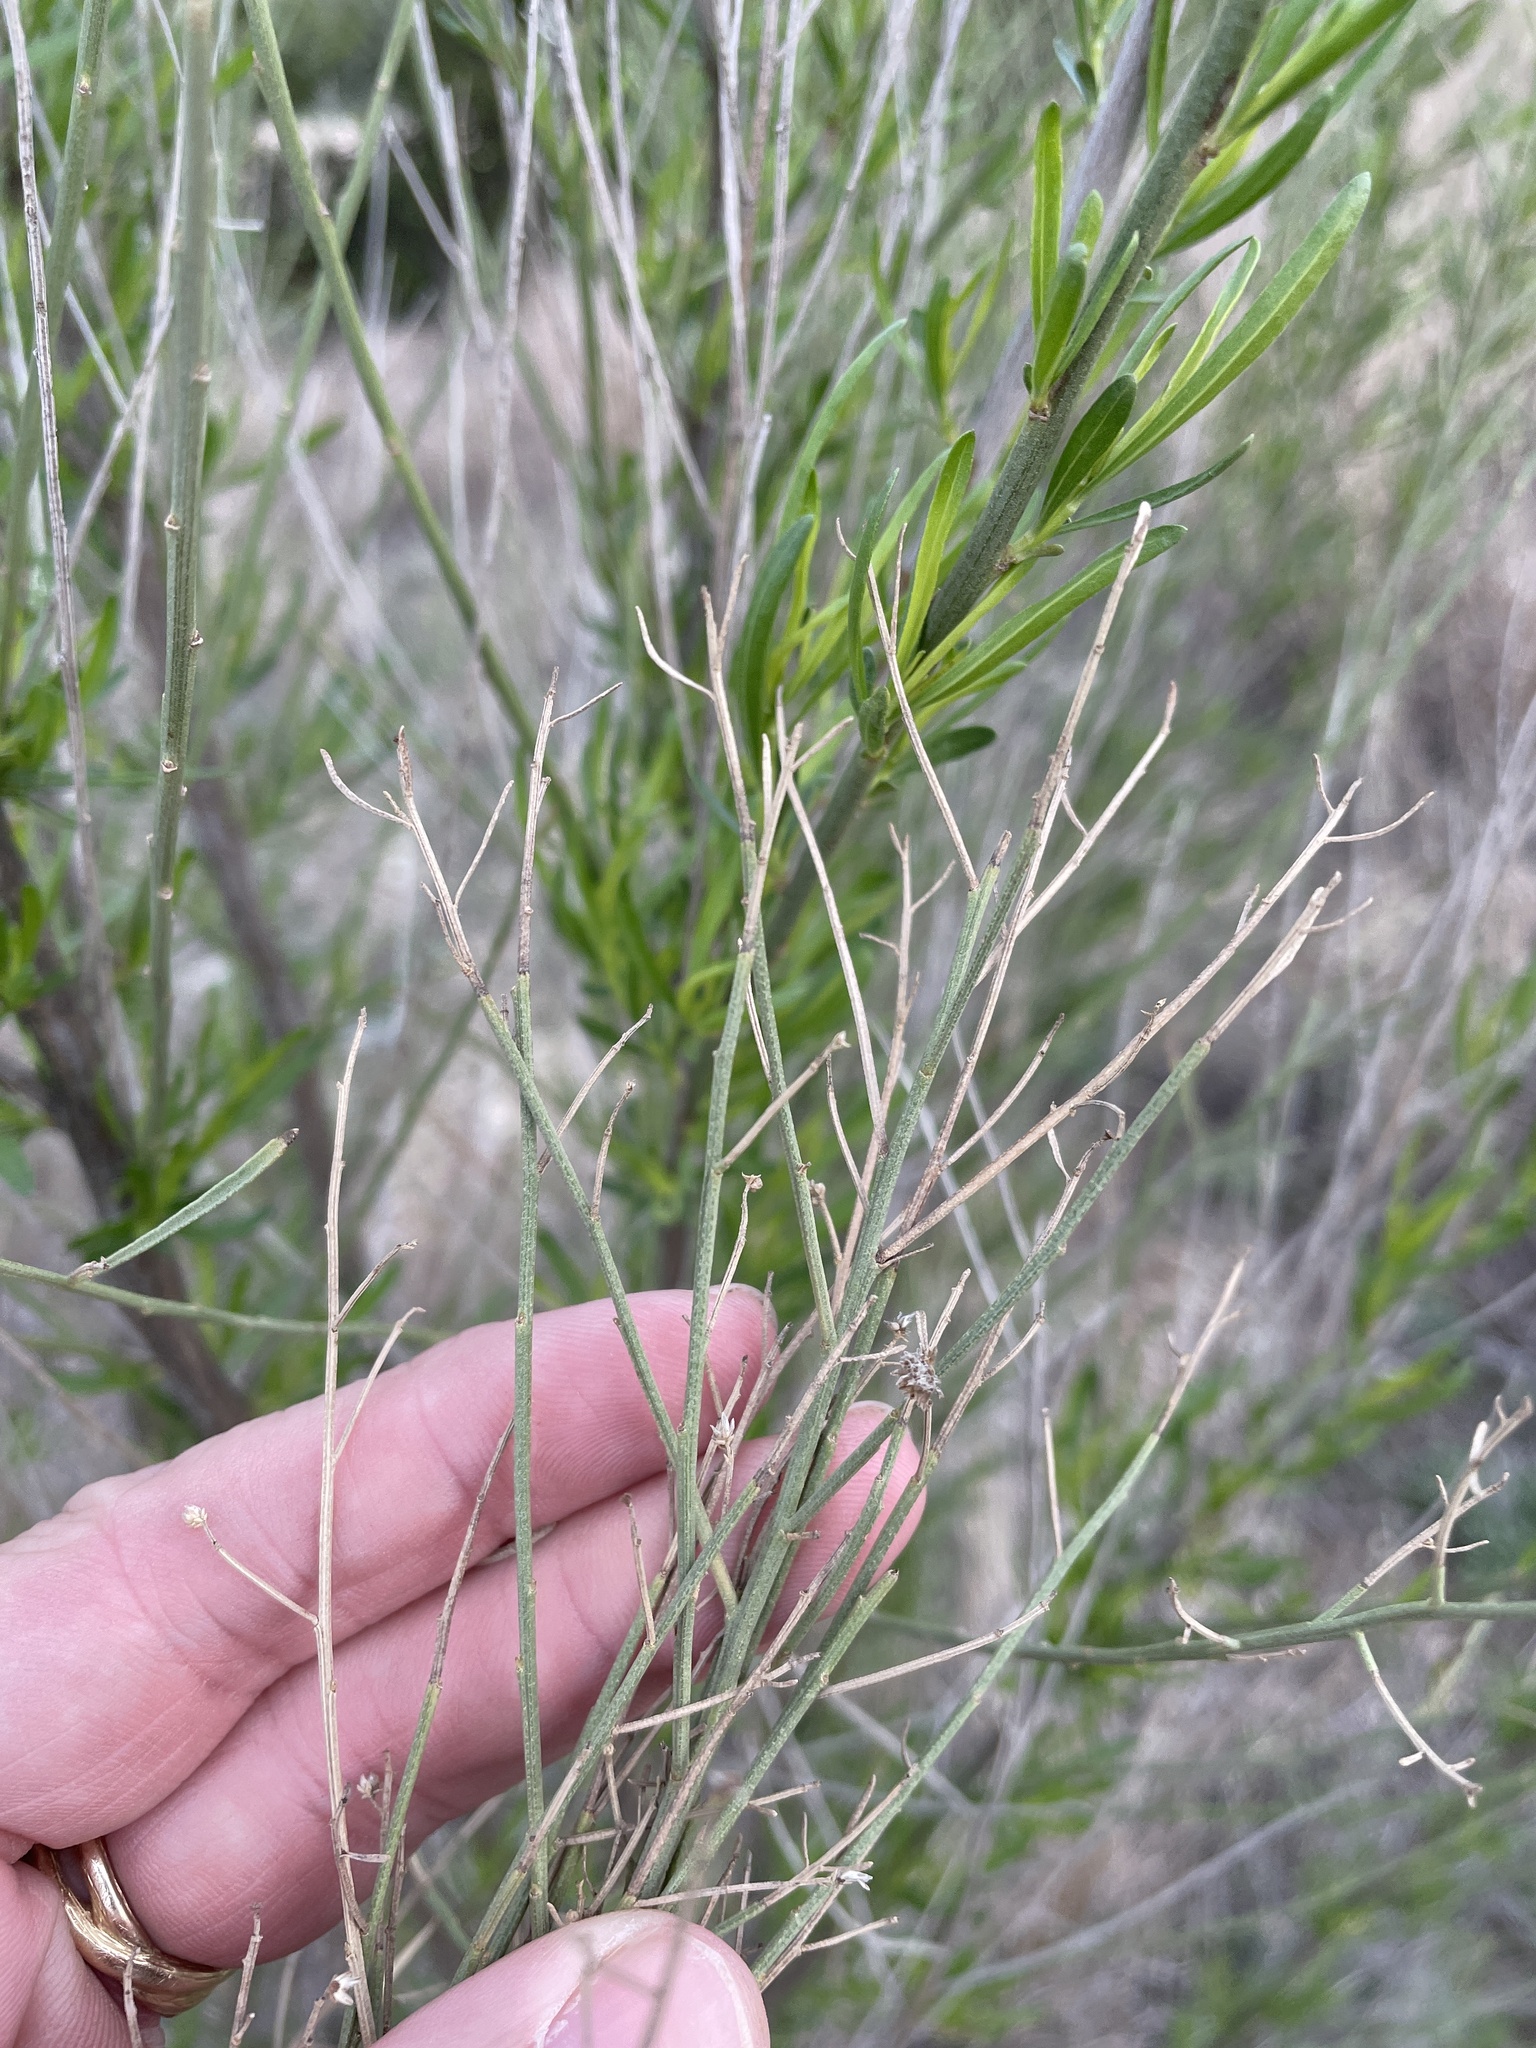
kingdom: Plantae
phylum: Tracheophyta
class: Magnoliopsida
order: Asterales
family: Asteraceae
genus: Baccharis
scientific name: Baccharis neglecta
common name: Roosevelt-weed
